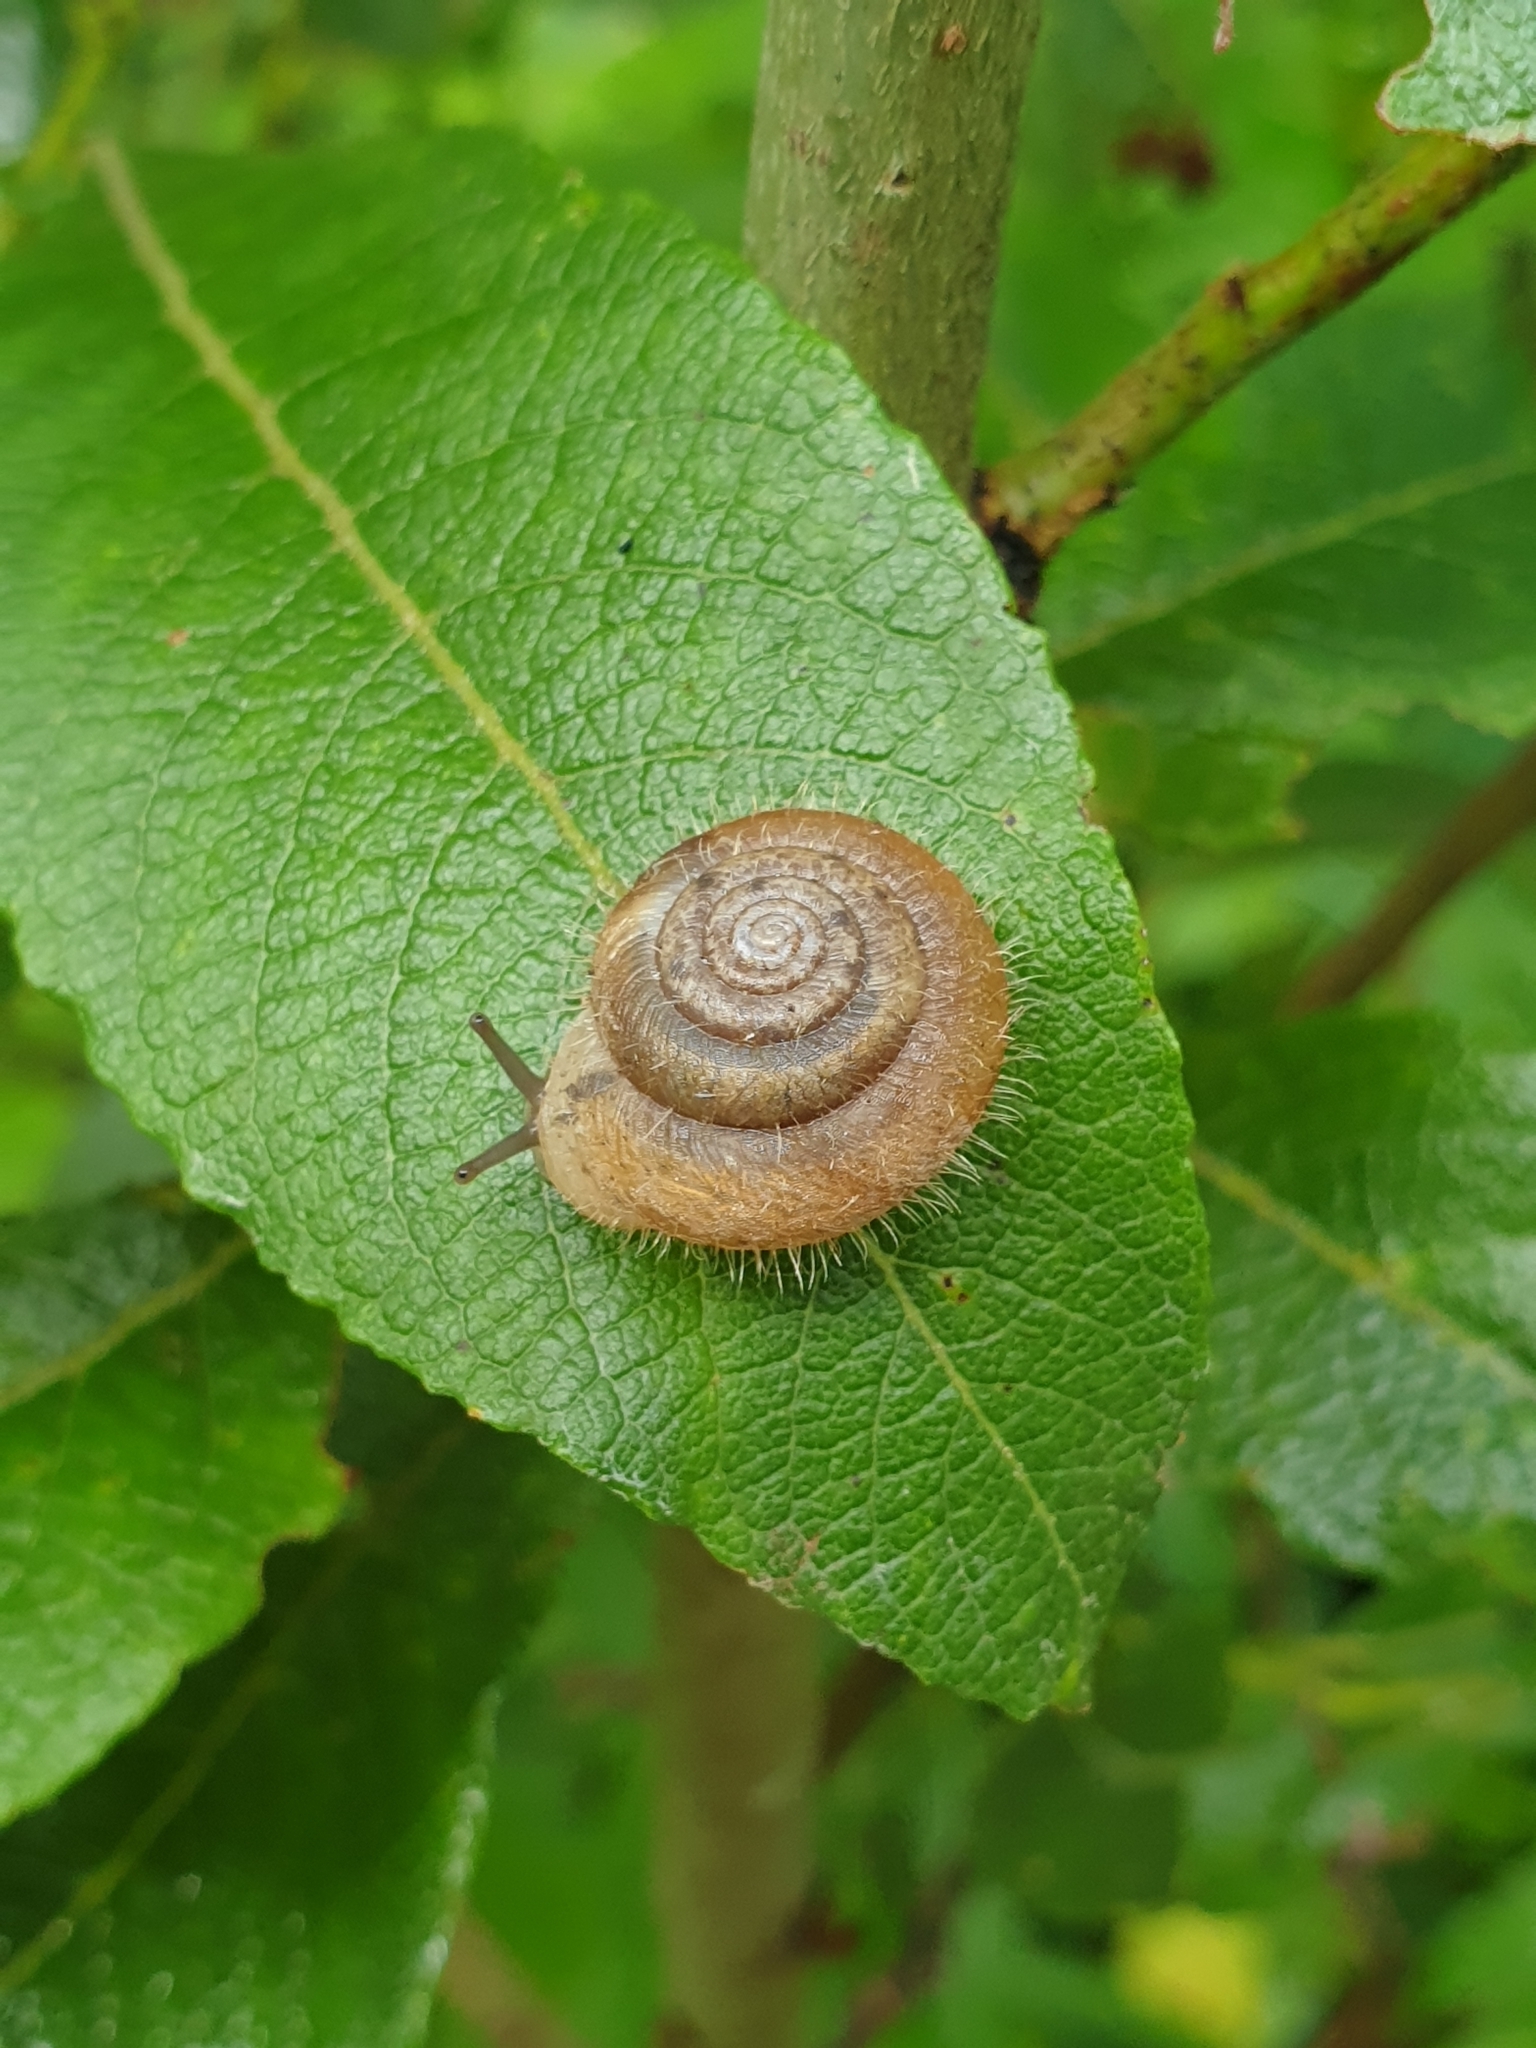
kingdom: Animalia
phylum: Mollusca
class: Gastropoda
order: Stylommatophora
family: Hygromiidae
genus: Trochulus
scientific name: Trochulus villosus
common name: Villous hairysnail
